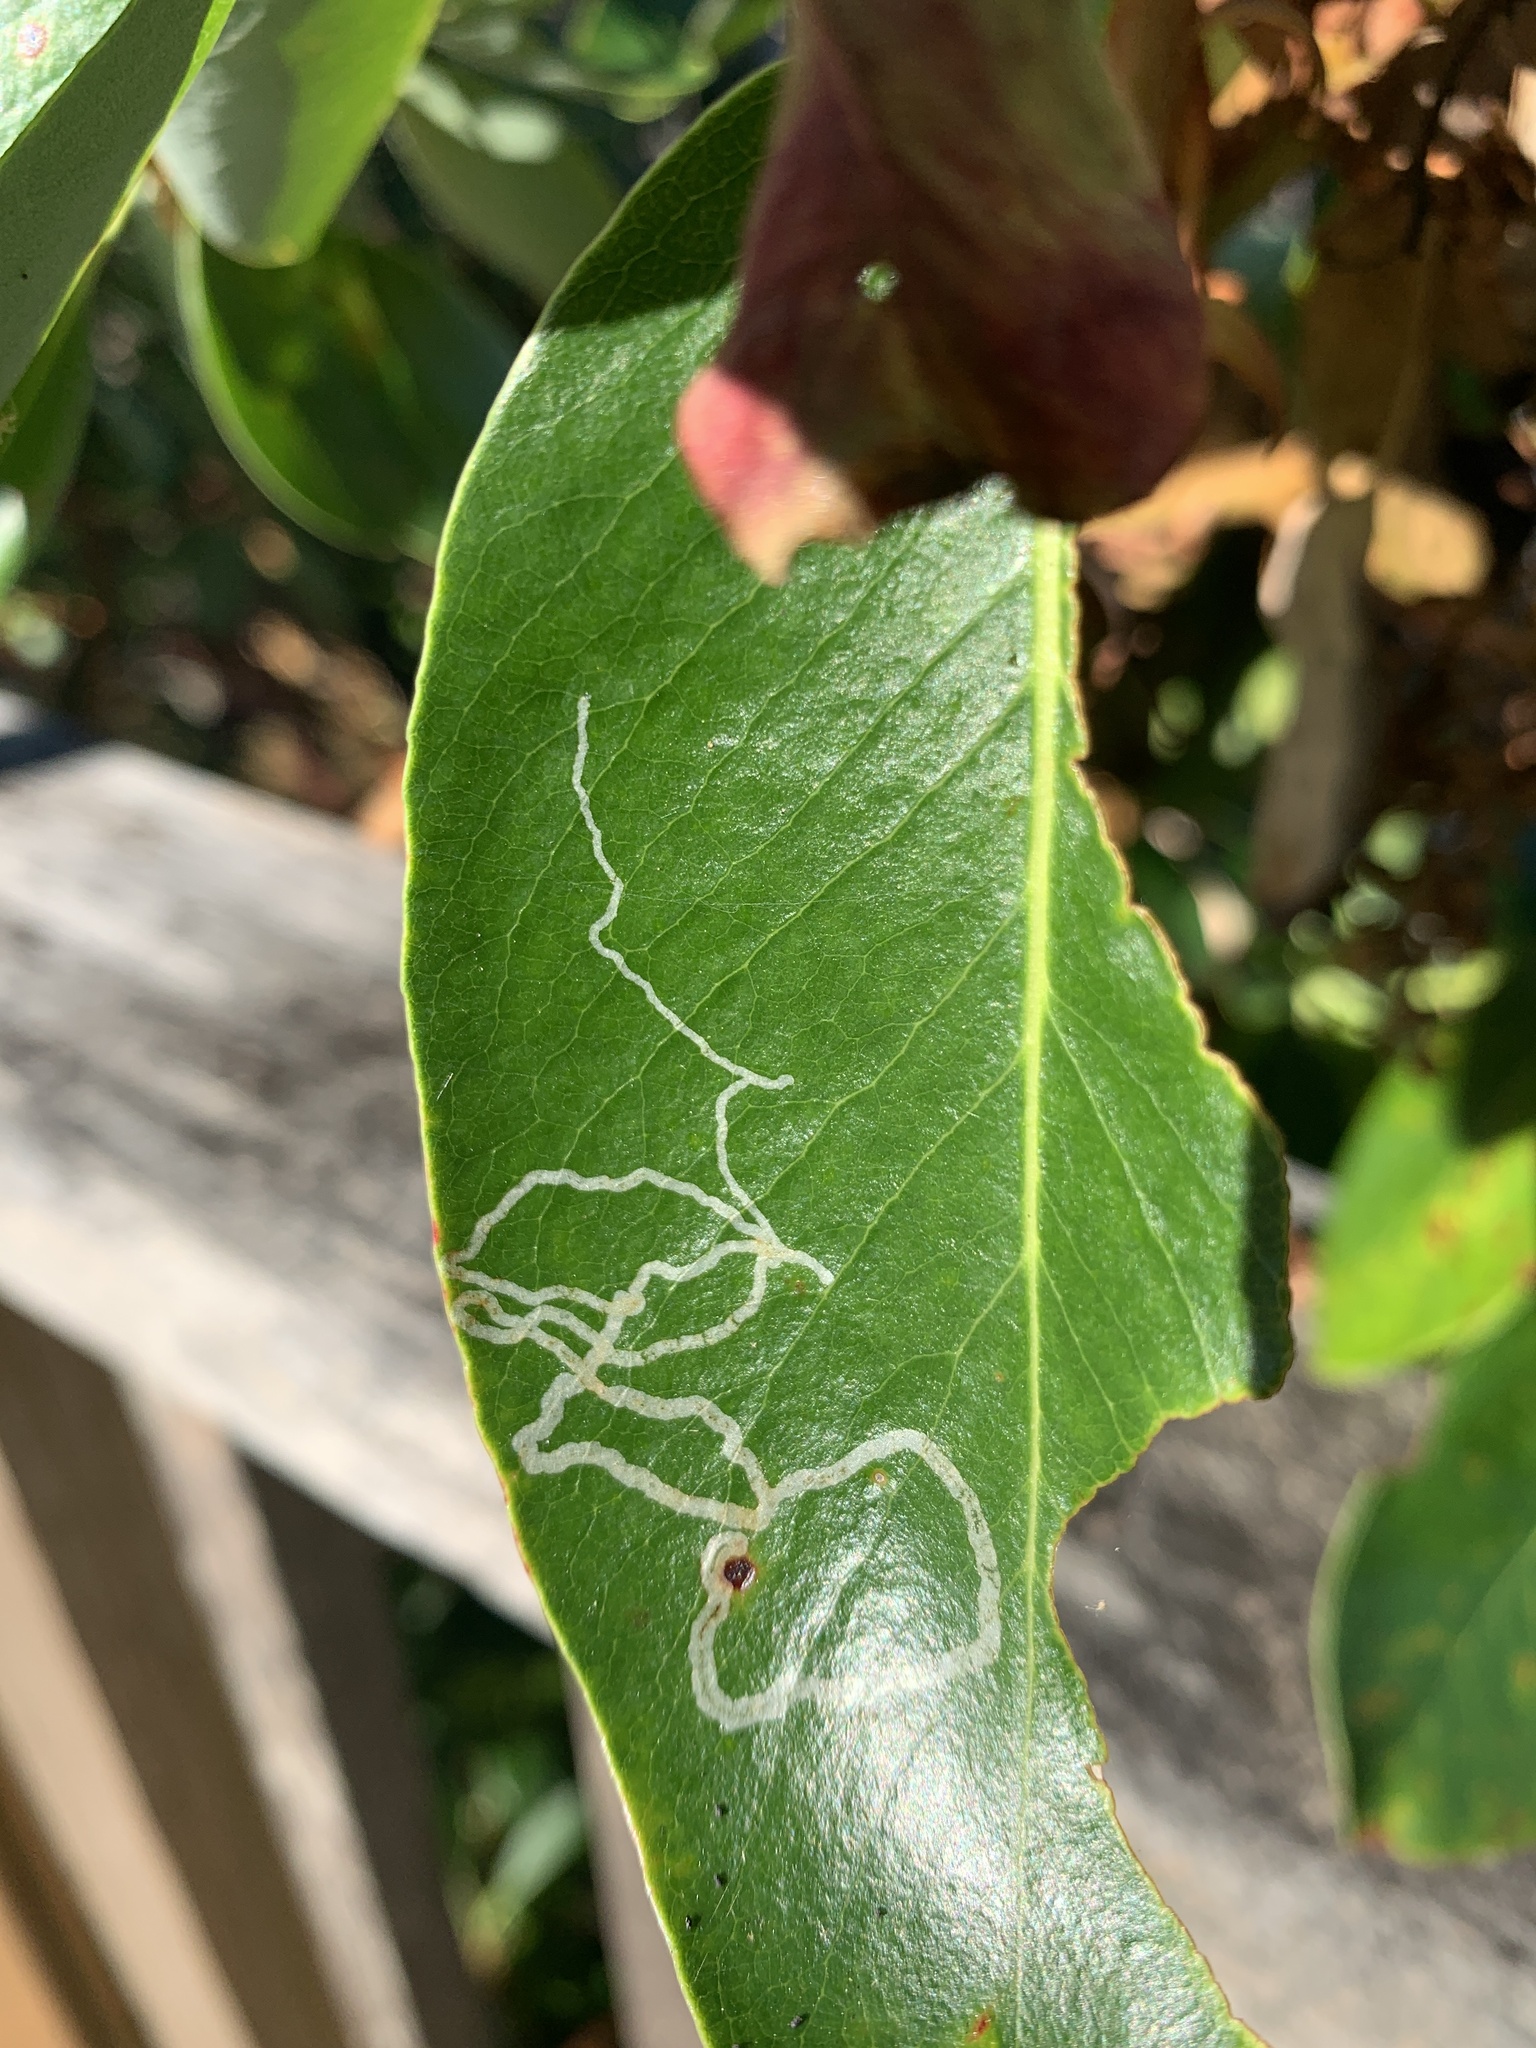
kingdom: Animalia
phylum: Arthropoda
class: Insecta
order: Lepidoptera
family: Gracillariidae
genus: Marmara
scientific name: Marmara arbutiella
